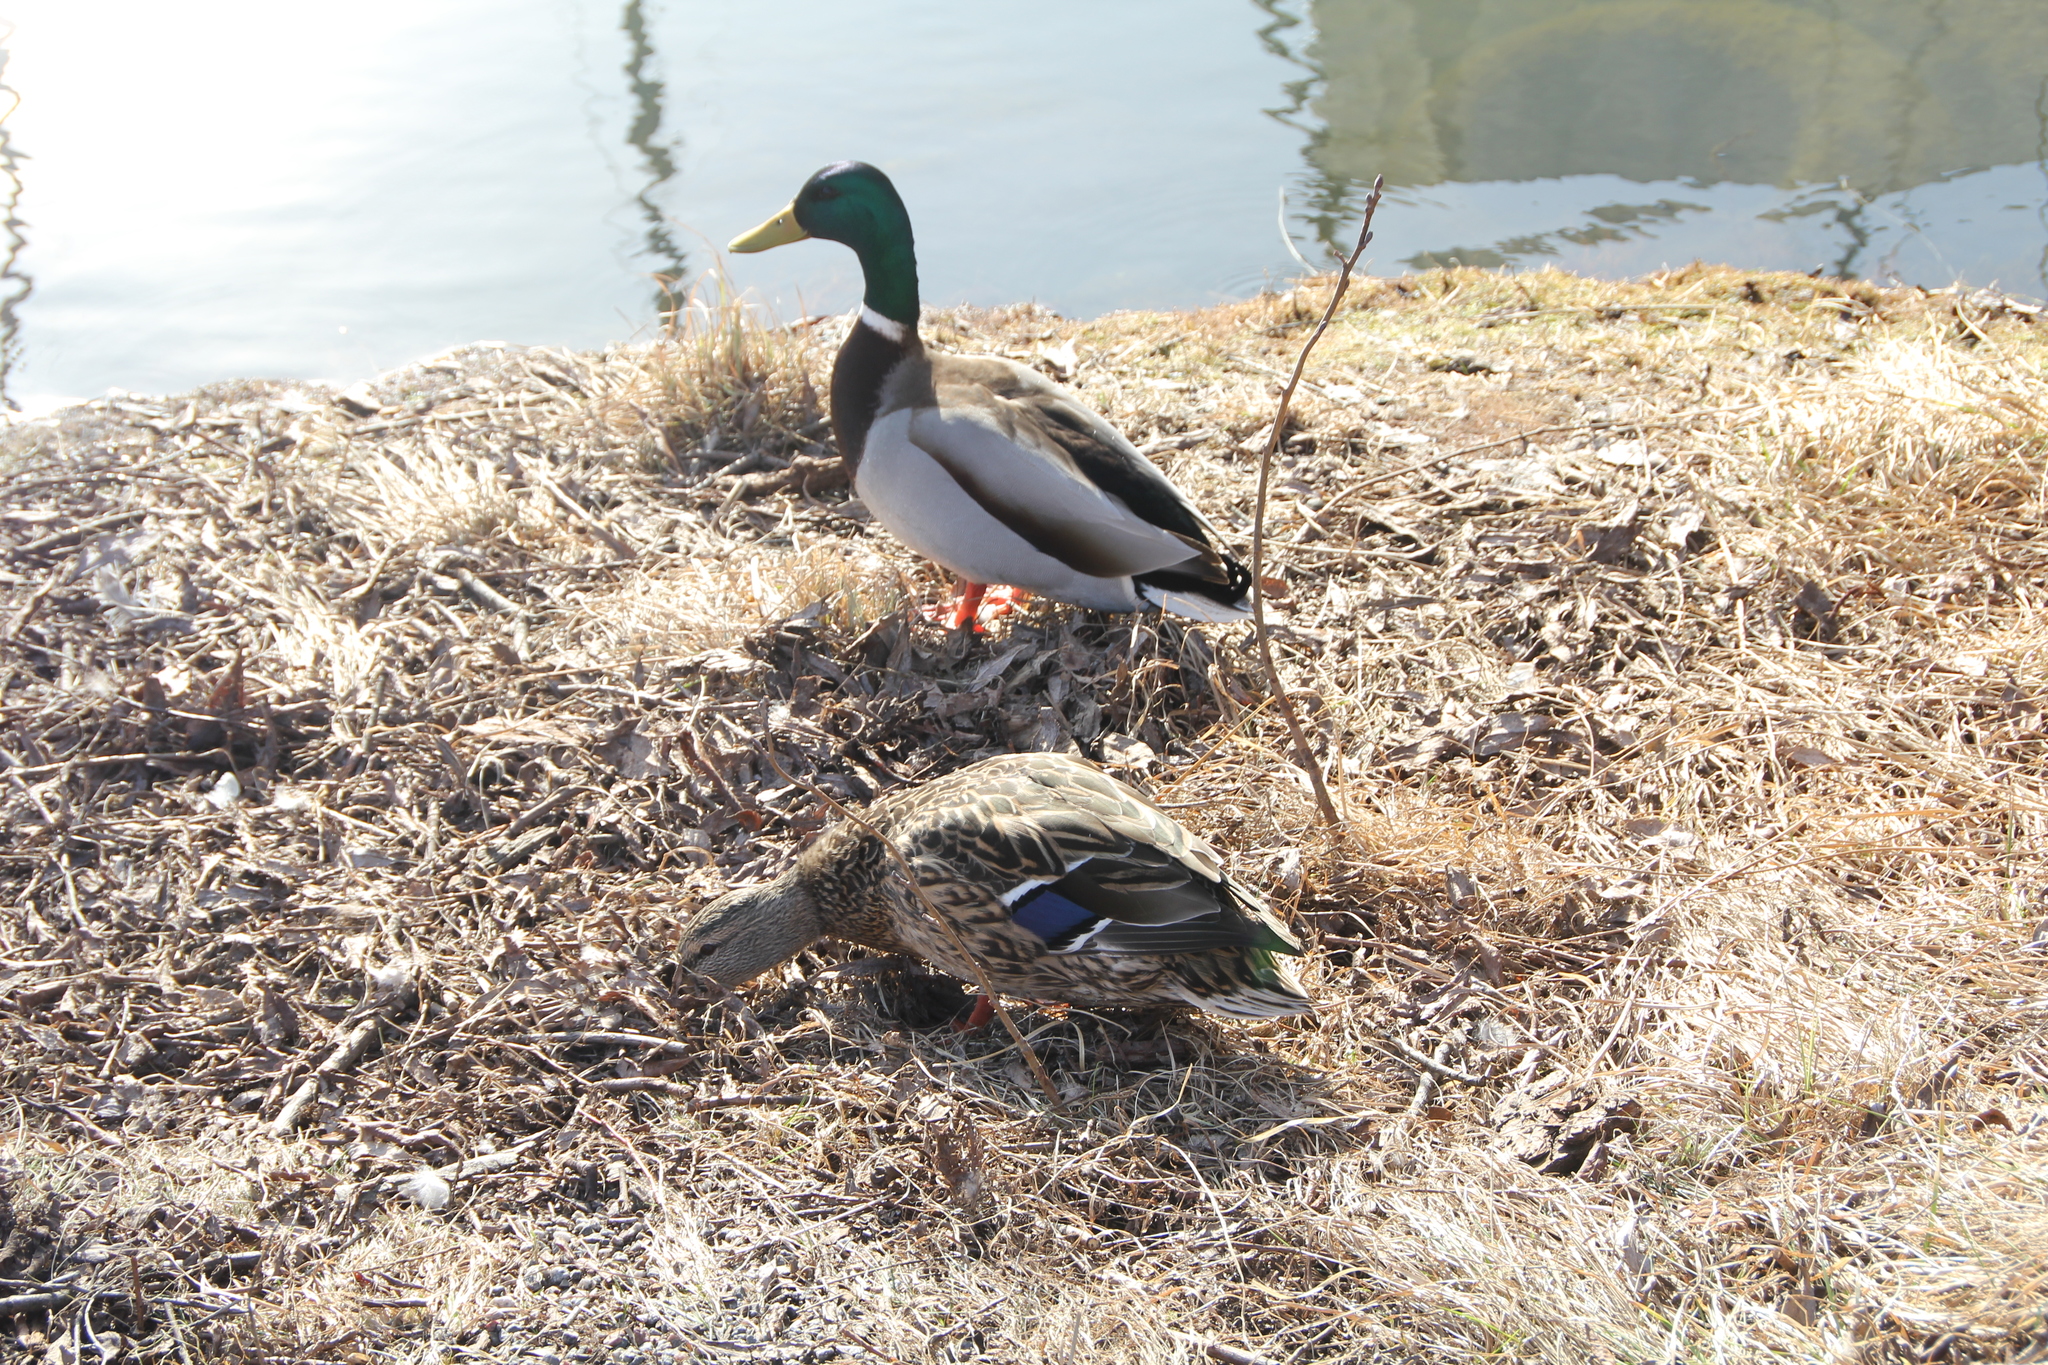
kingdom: Animalia
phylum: Chordata
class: Aves
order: Anseriformes
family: Anatidae
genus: Anas
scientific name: Anas platyrhynchos
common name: Mallard
